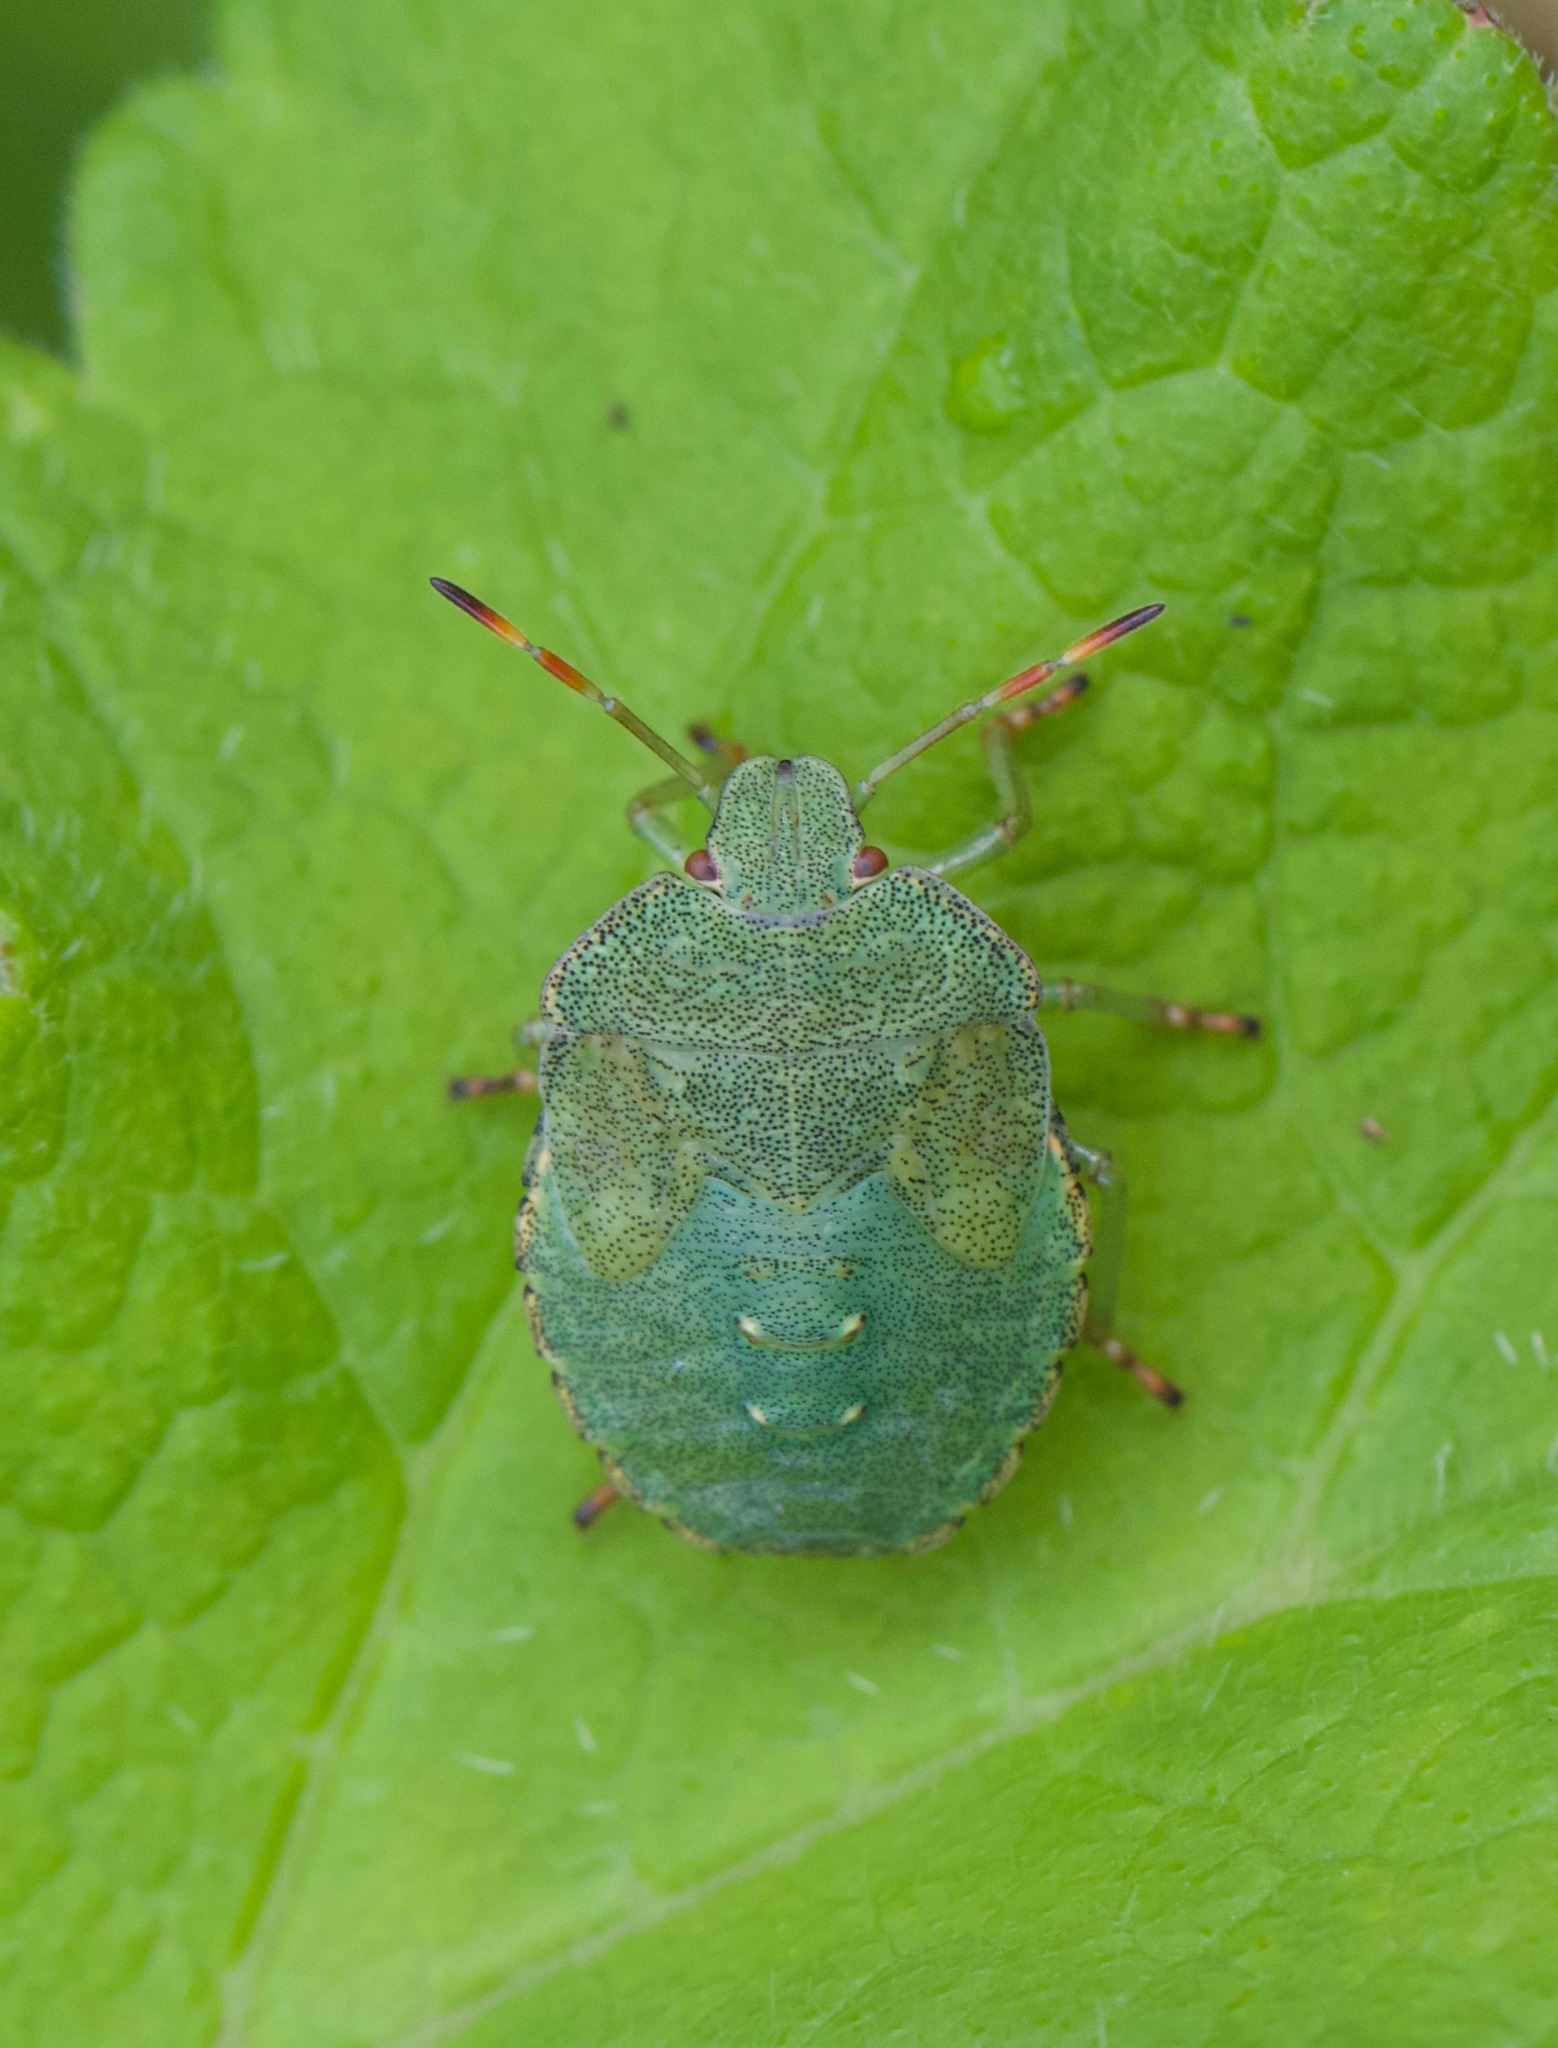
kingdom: Animalia
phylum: Arthropoda
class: Insecta
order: Hemiptera
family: Pentatomidae
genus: Palomena
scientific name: Palomena prasina
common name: Green shieldbug
